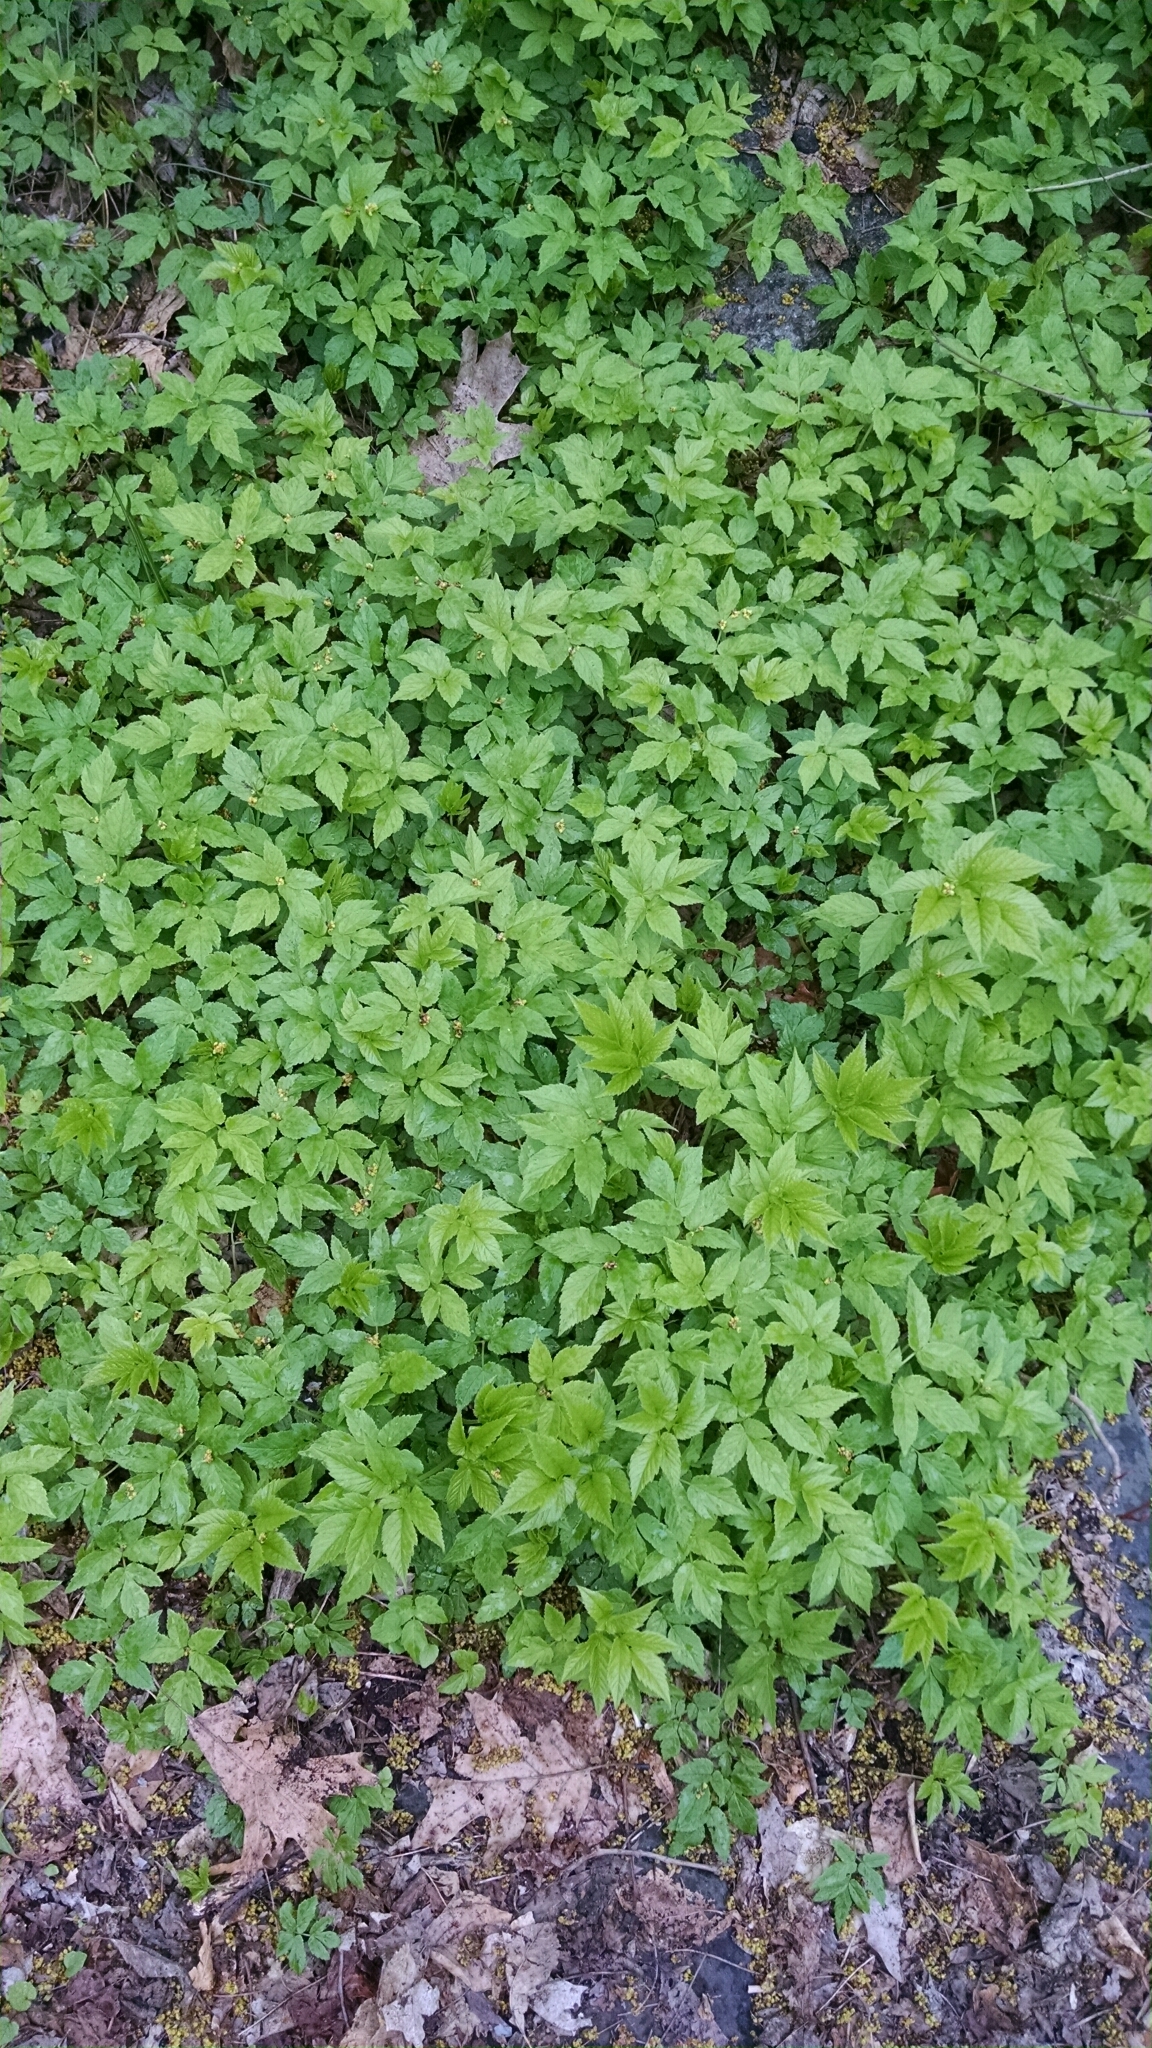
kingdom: Plantae
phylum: Tracheophyta
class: Magnoliopsida
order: Apiales
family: Apiaceae
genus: Aegopodium
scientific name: Aegopodium podagraria
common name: Ground-elder
